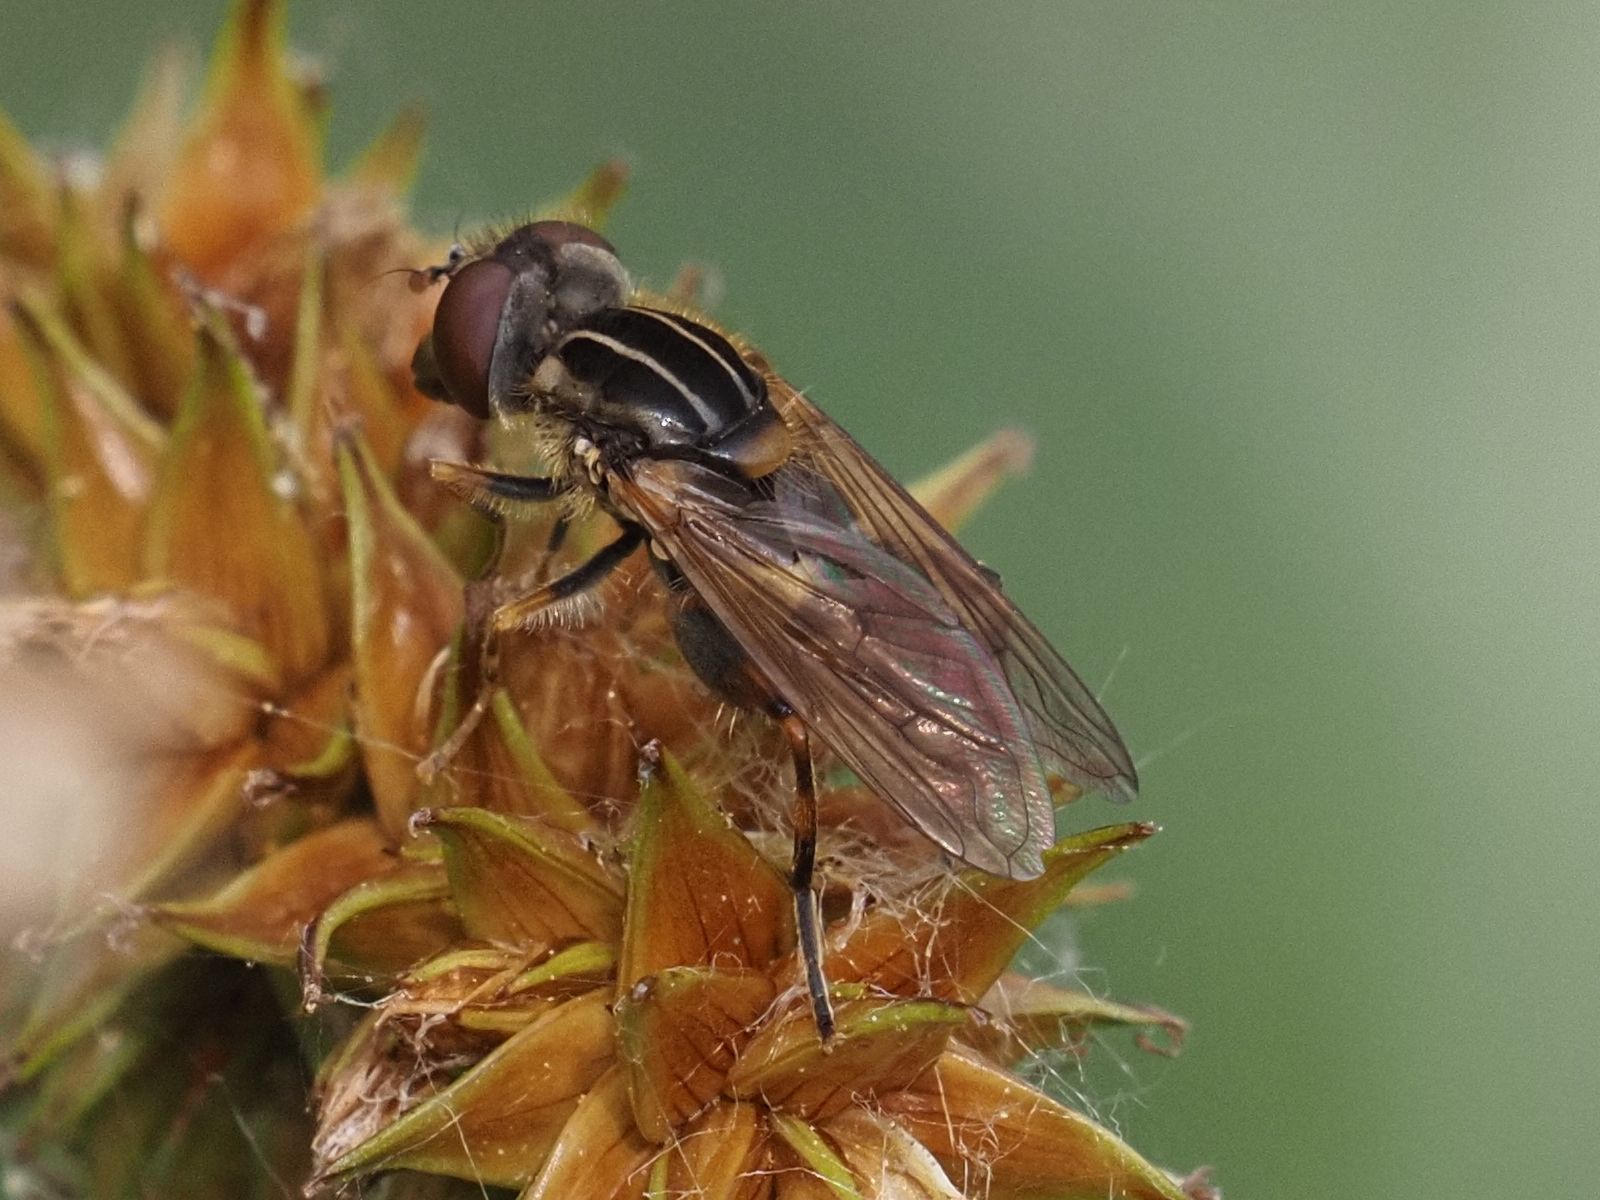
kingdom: Animalia
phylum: Arthropoda
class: Insecta
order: Diptera
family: Syrphidae
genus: Eurimyia
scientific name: Eurimyia lineatus
